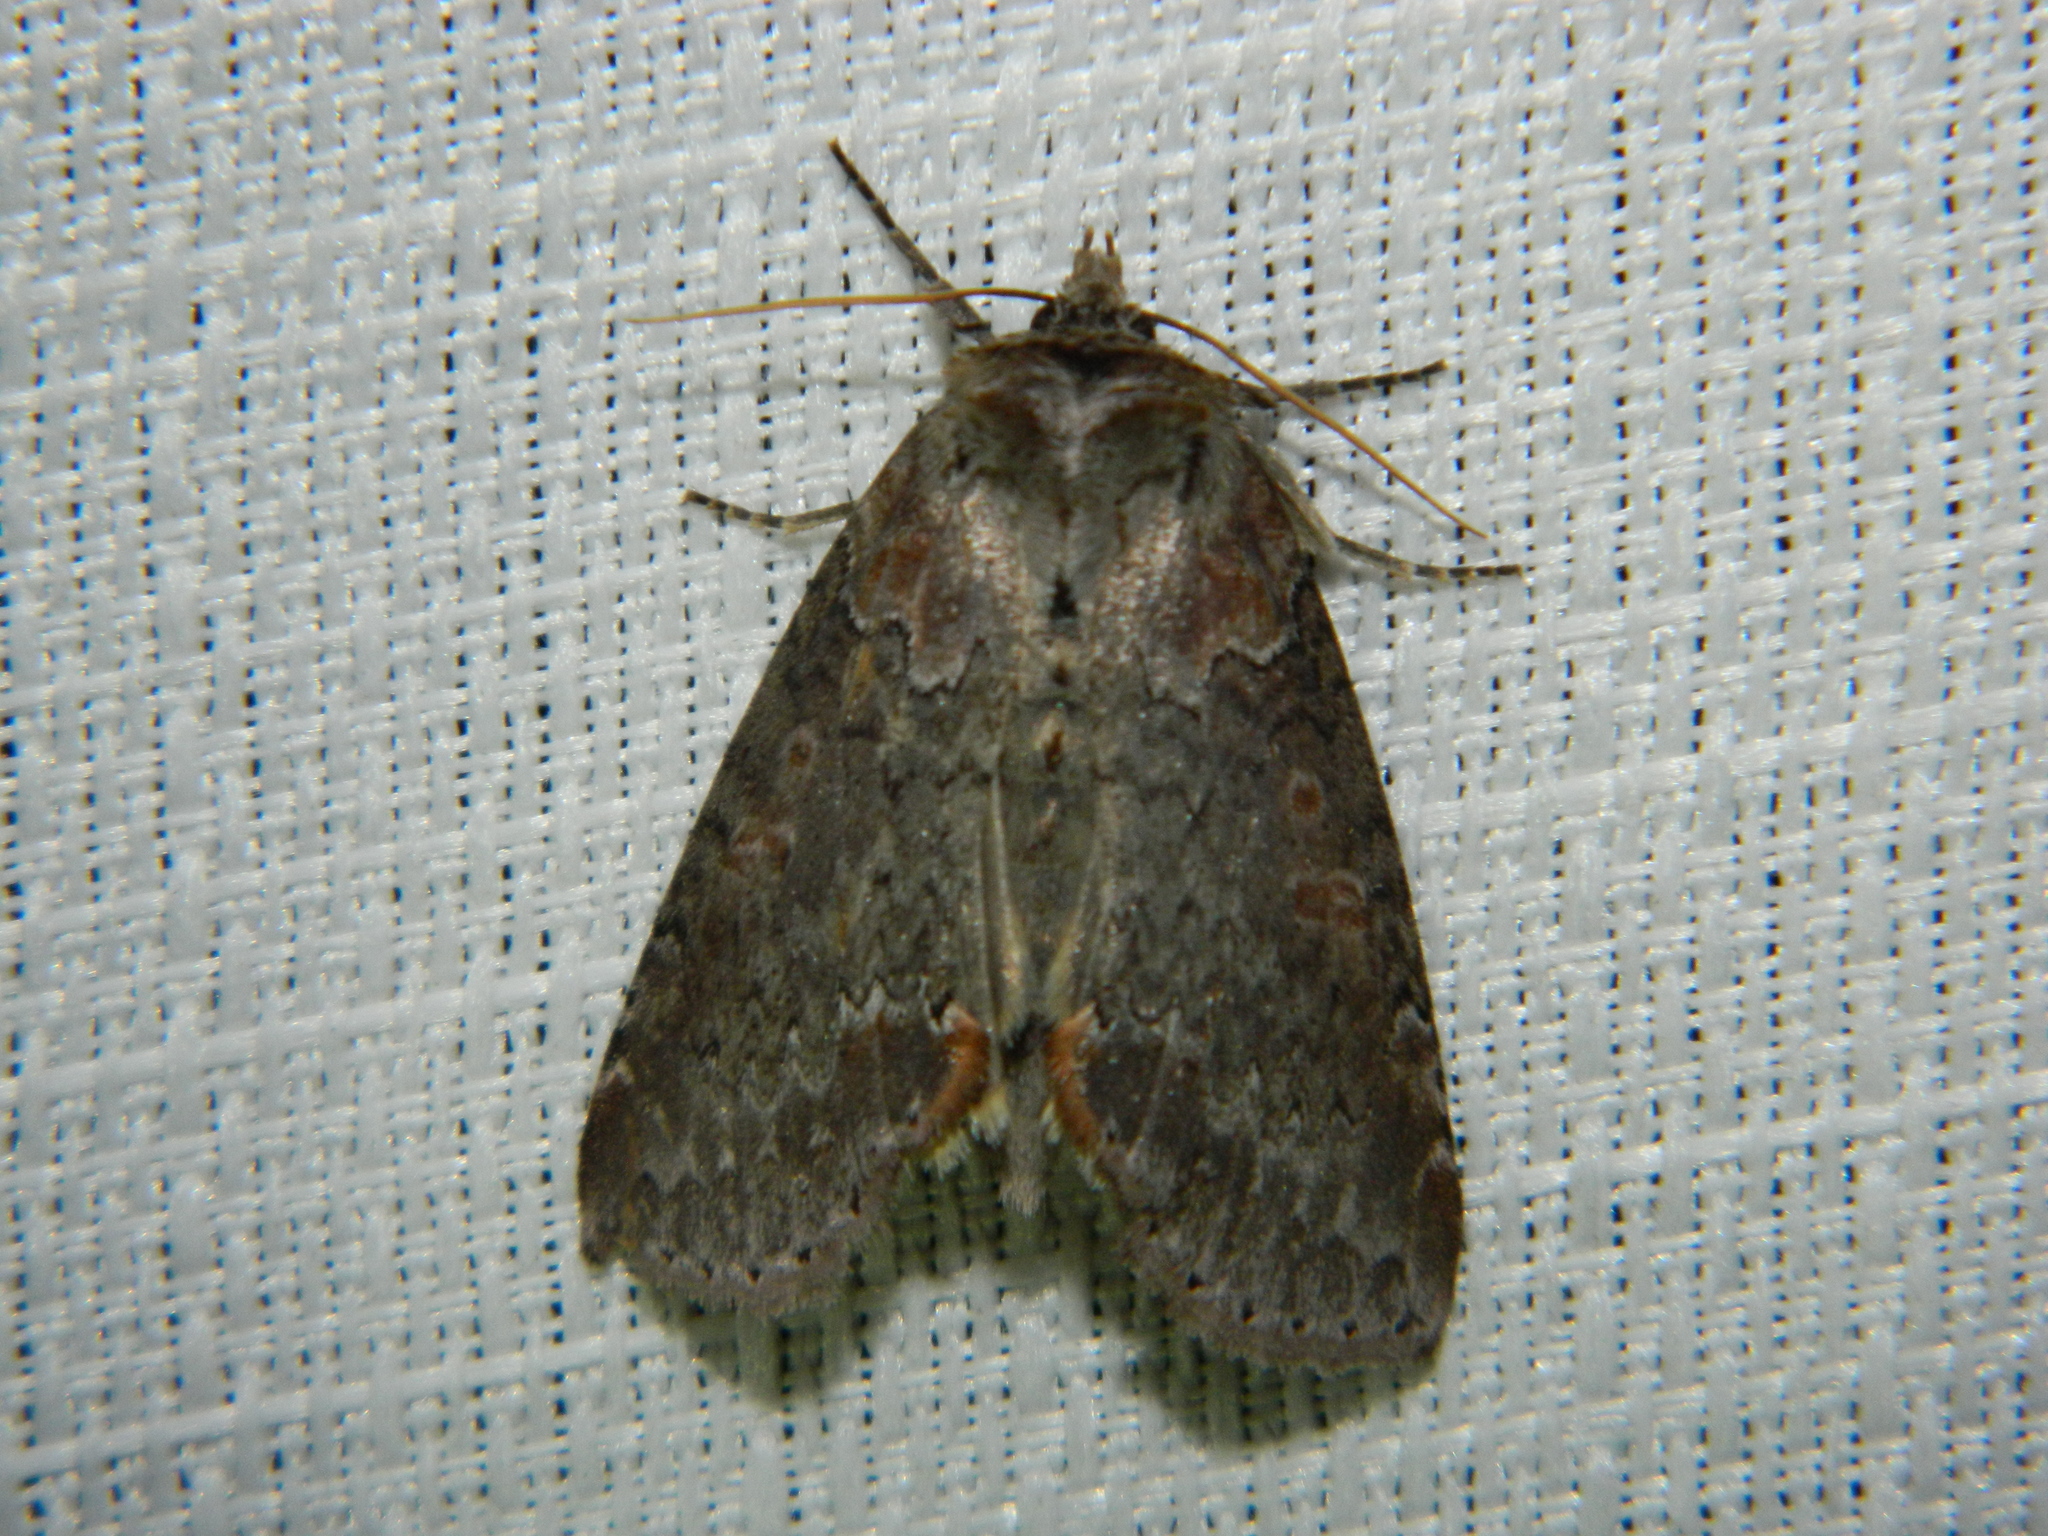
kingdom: Animalia
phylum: Arthropoda
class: Insecta
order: Lepidoptera
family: Drepanidae
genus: Pseudothyatira
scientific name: Pseudothyatira cymatophoroides
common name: Tufted thyatirid moth
